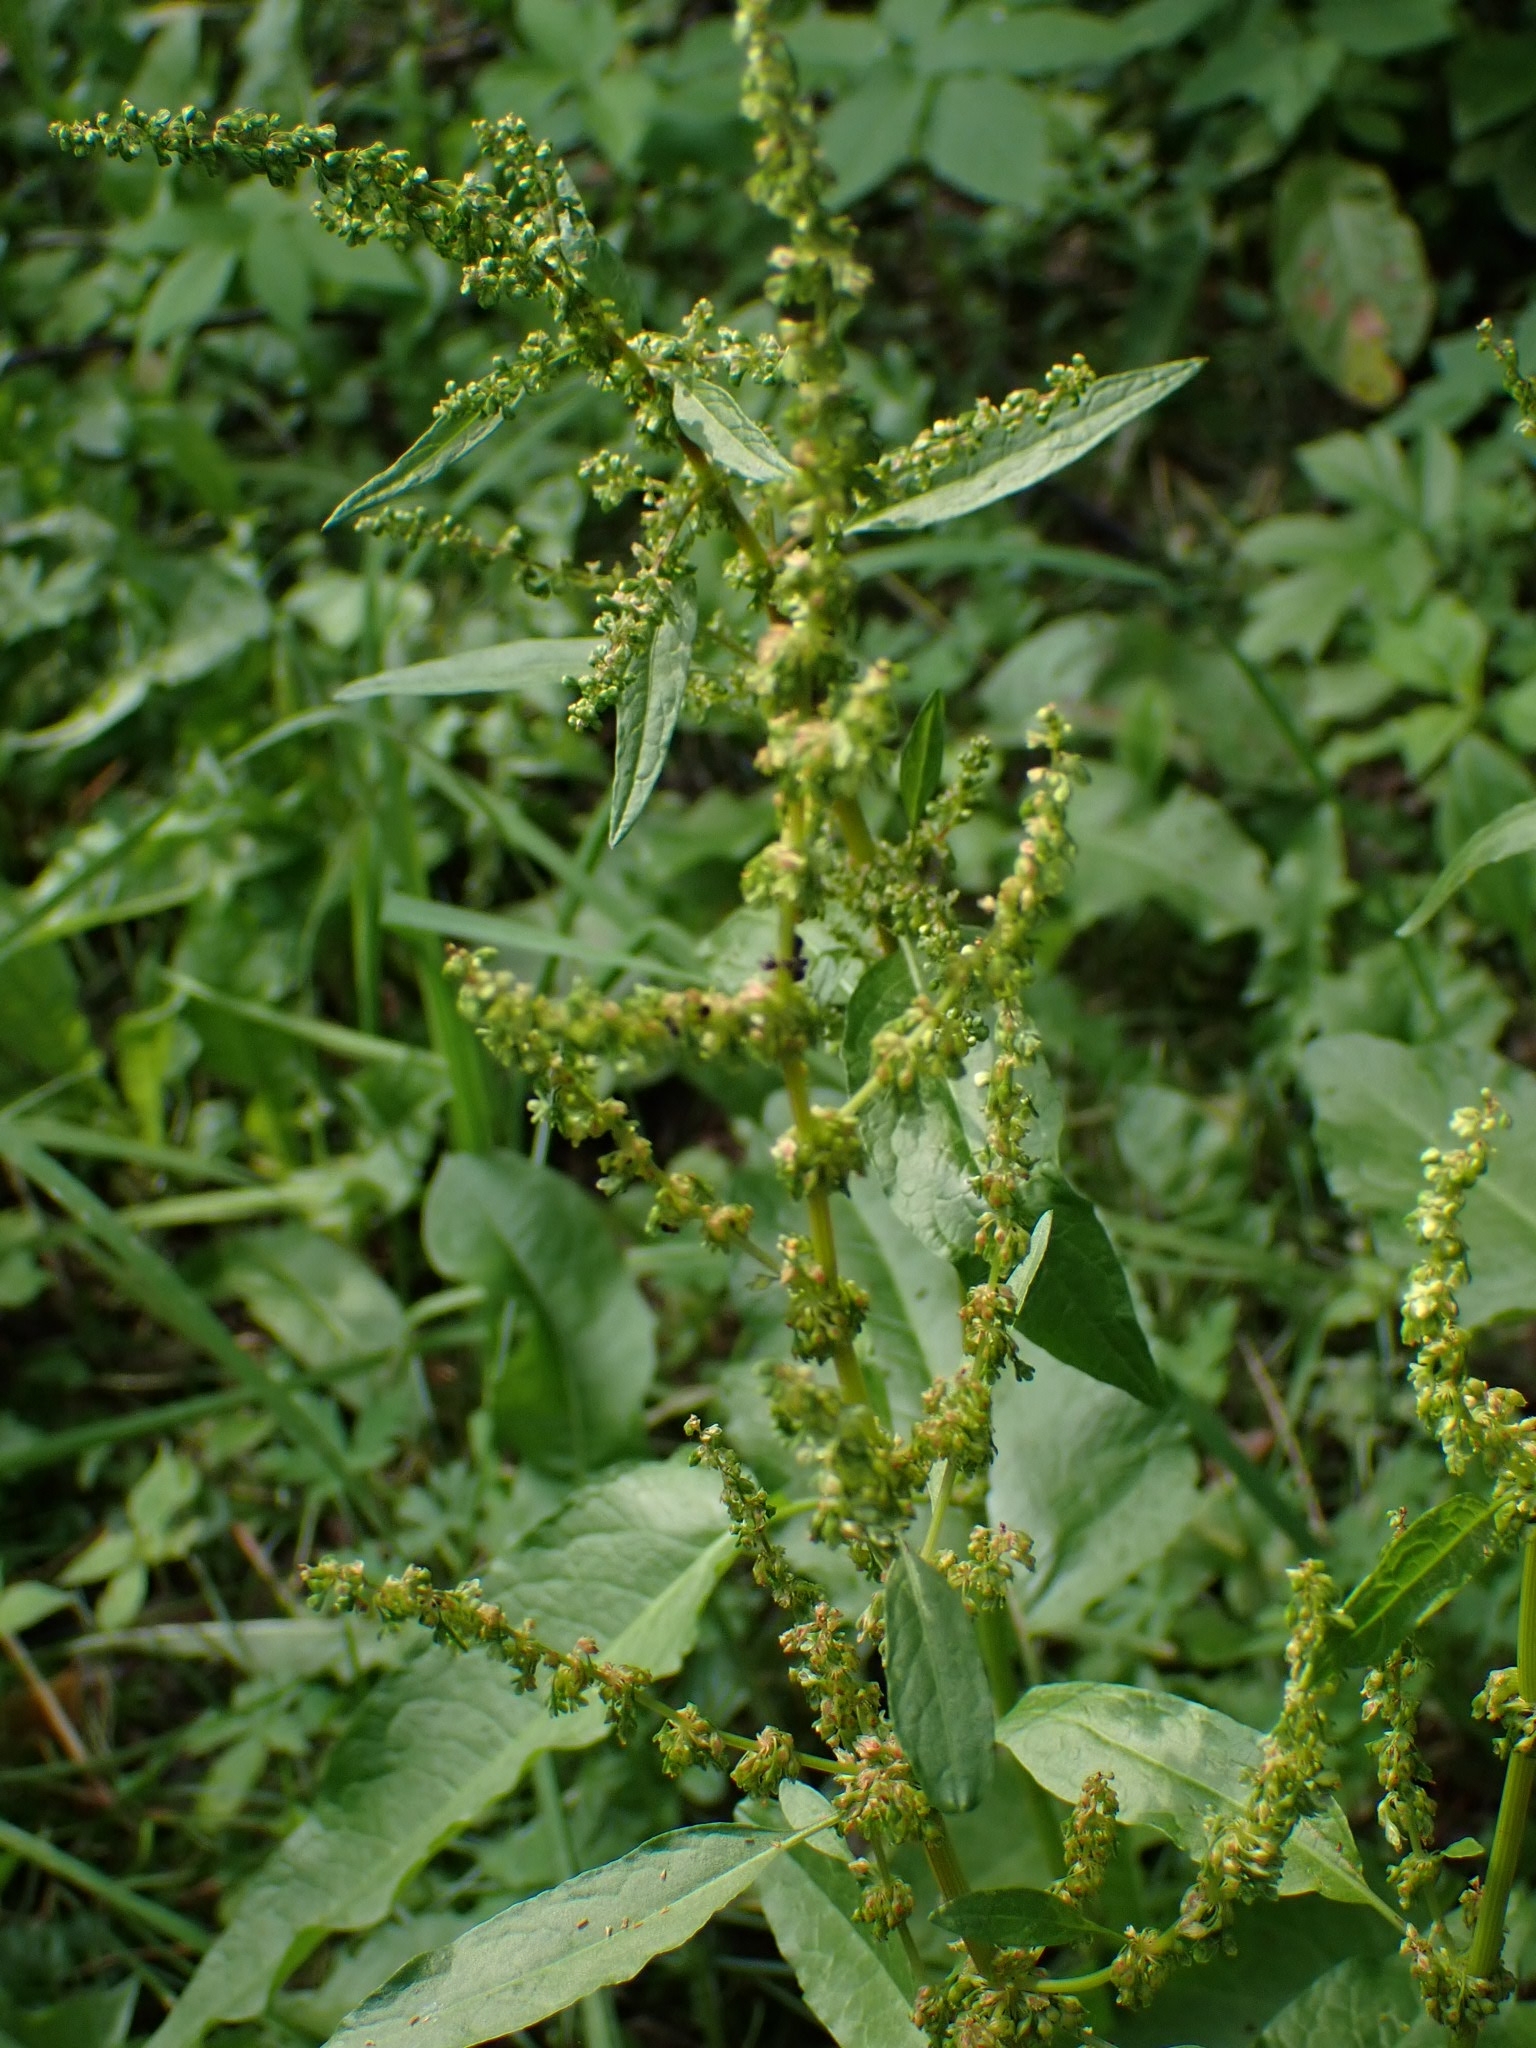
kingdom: Plantae
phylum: Tracheophyta
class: Magnoliopsida
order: Caryophyllales
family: Polygonaceae
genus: Rumex
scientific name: Rumex obtusifolius
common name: Bitter dock
